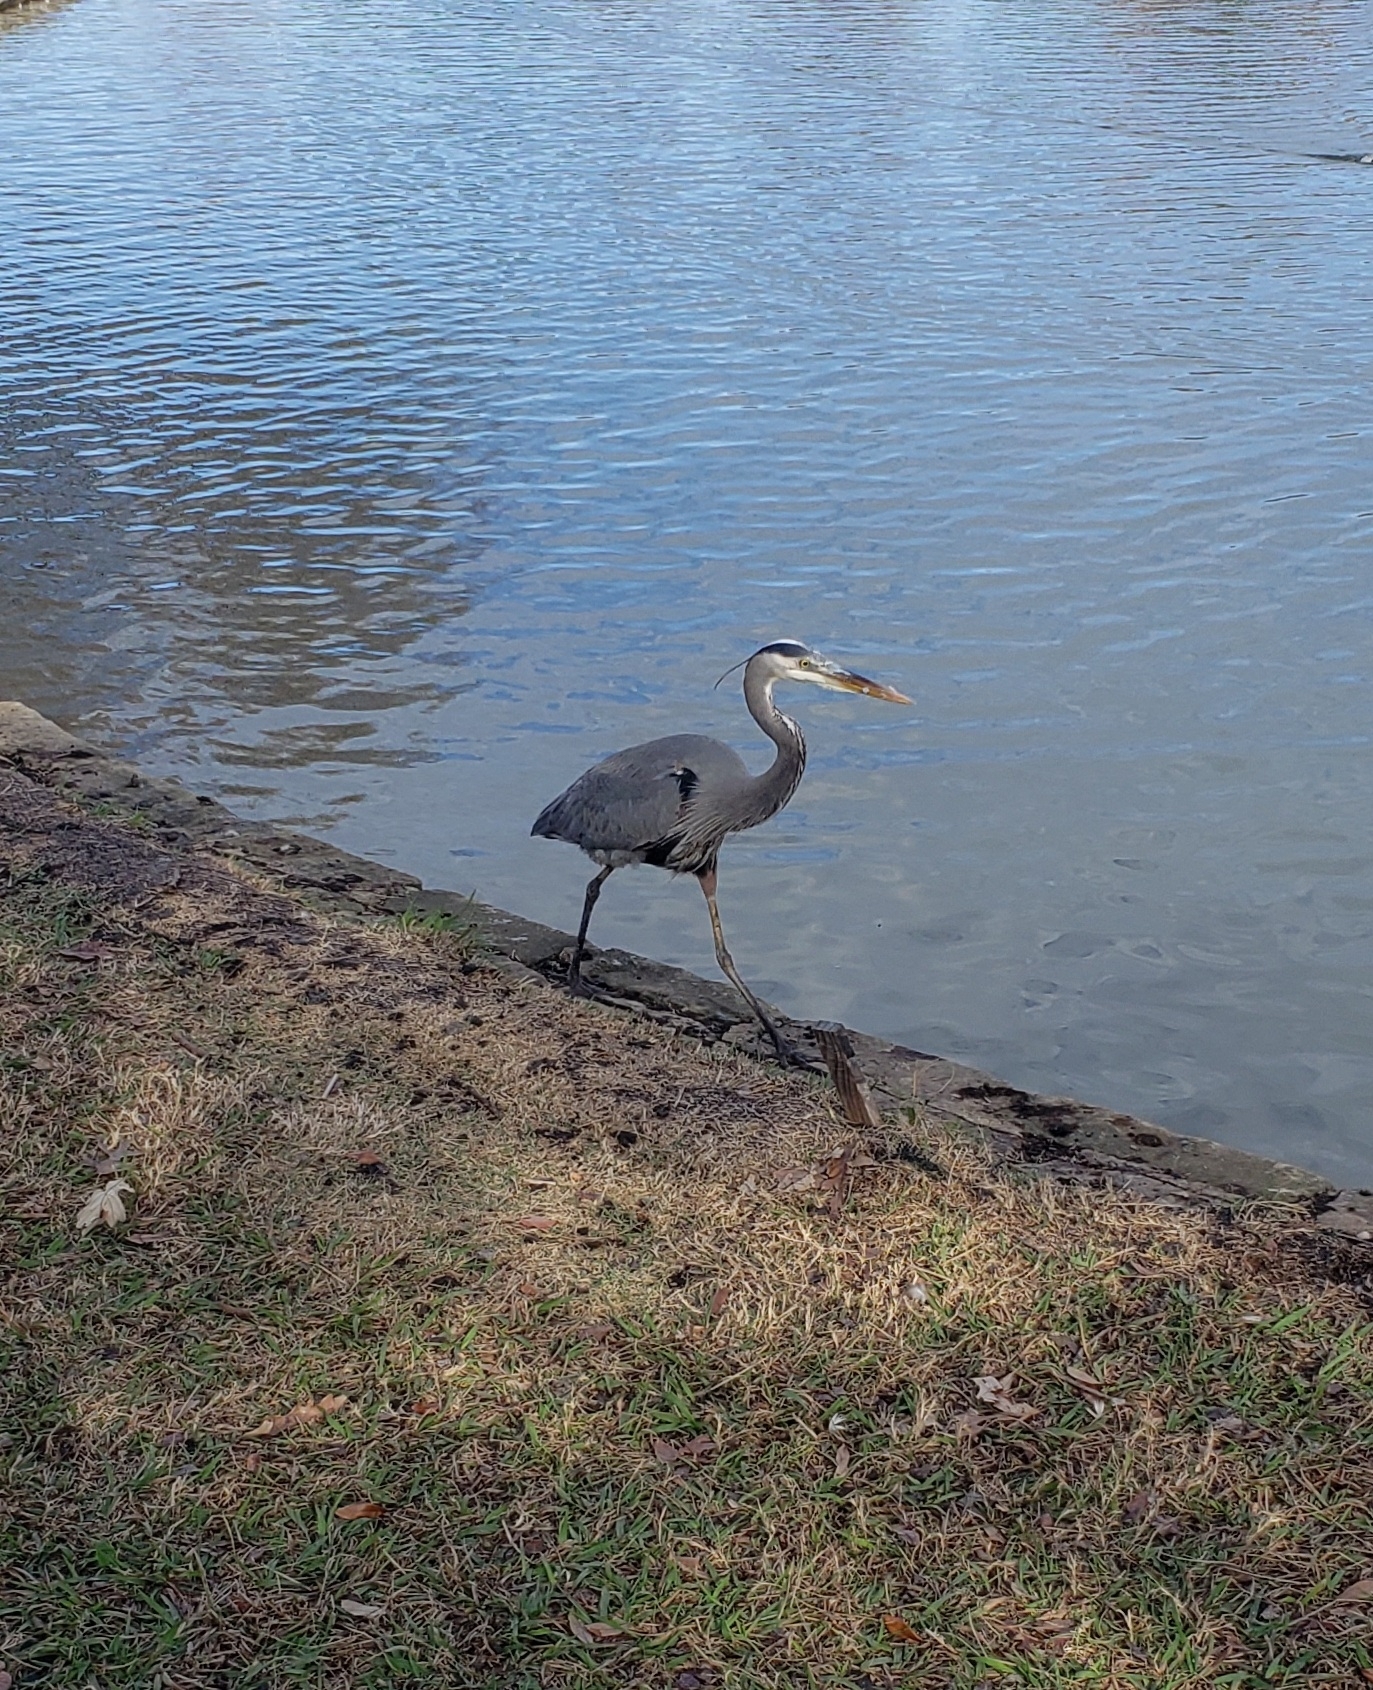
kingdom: Animalia
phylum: Chordata
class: Aves
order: Pelecaniformes
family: Ardeidae
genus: Ardea
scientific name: Ardea herodias
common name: Great blue heron
